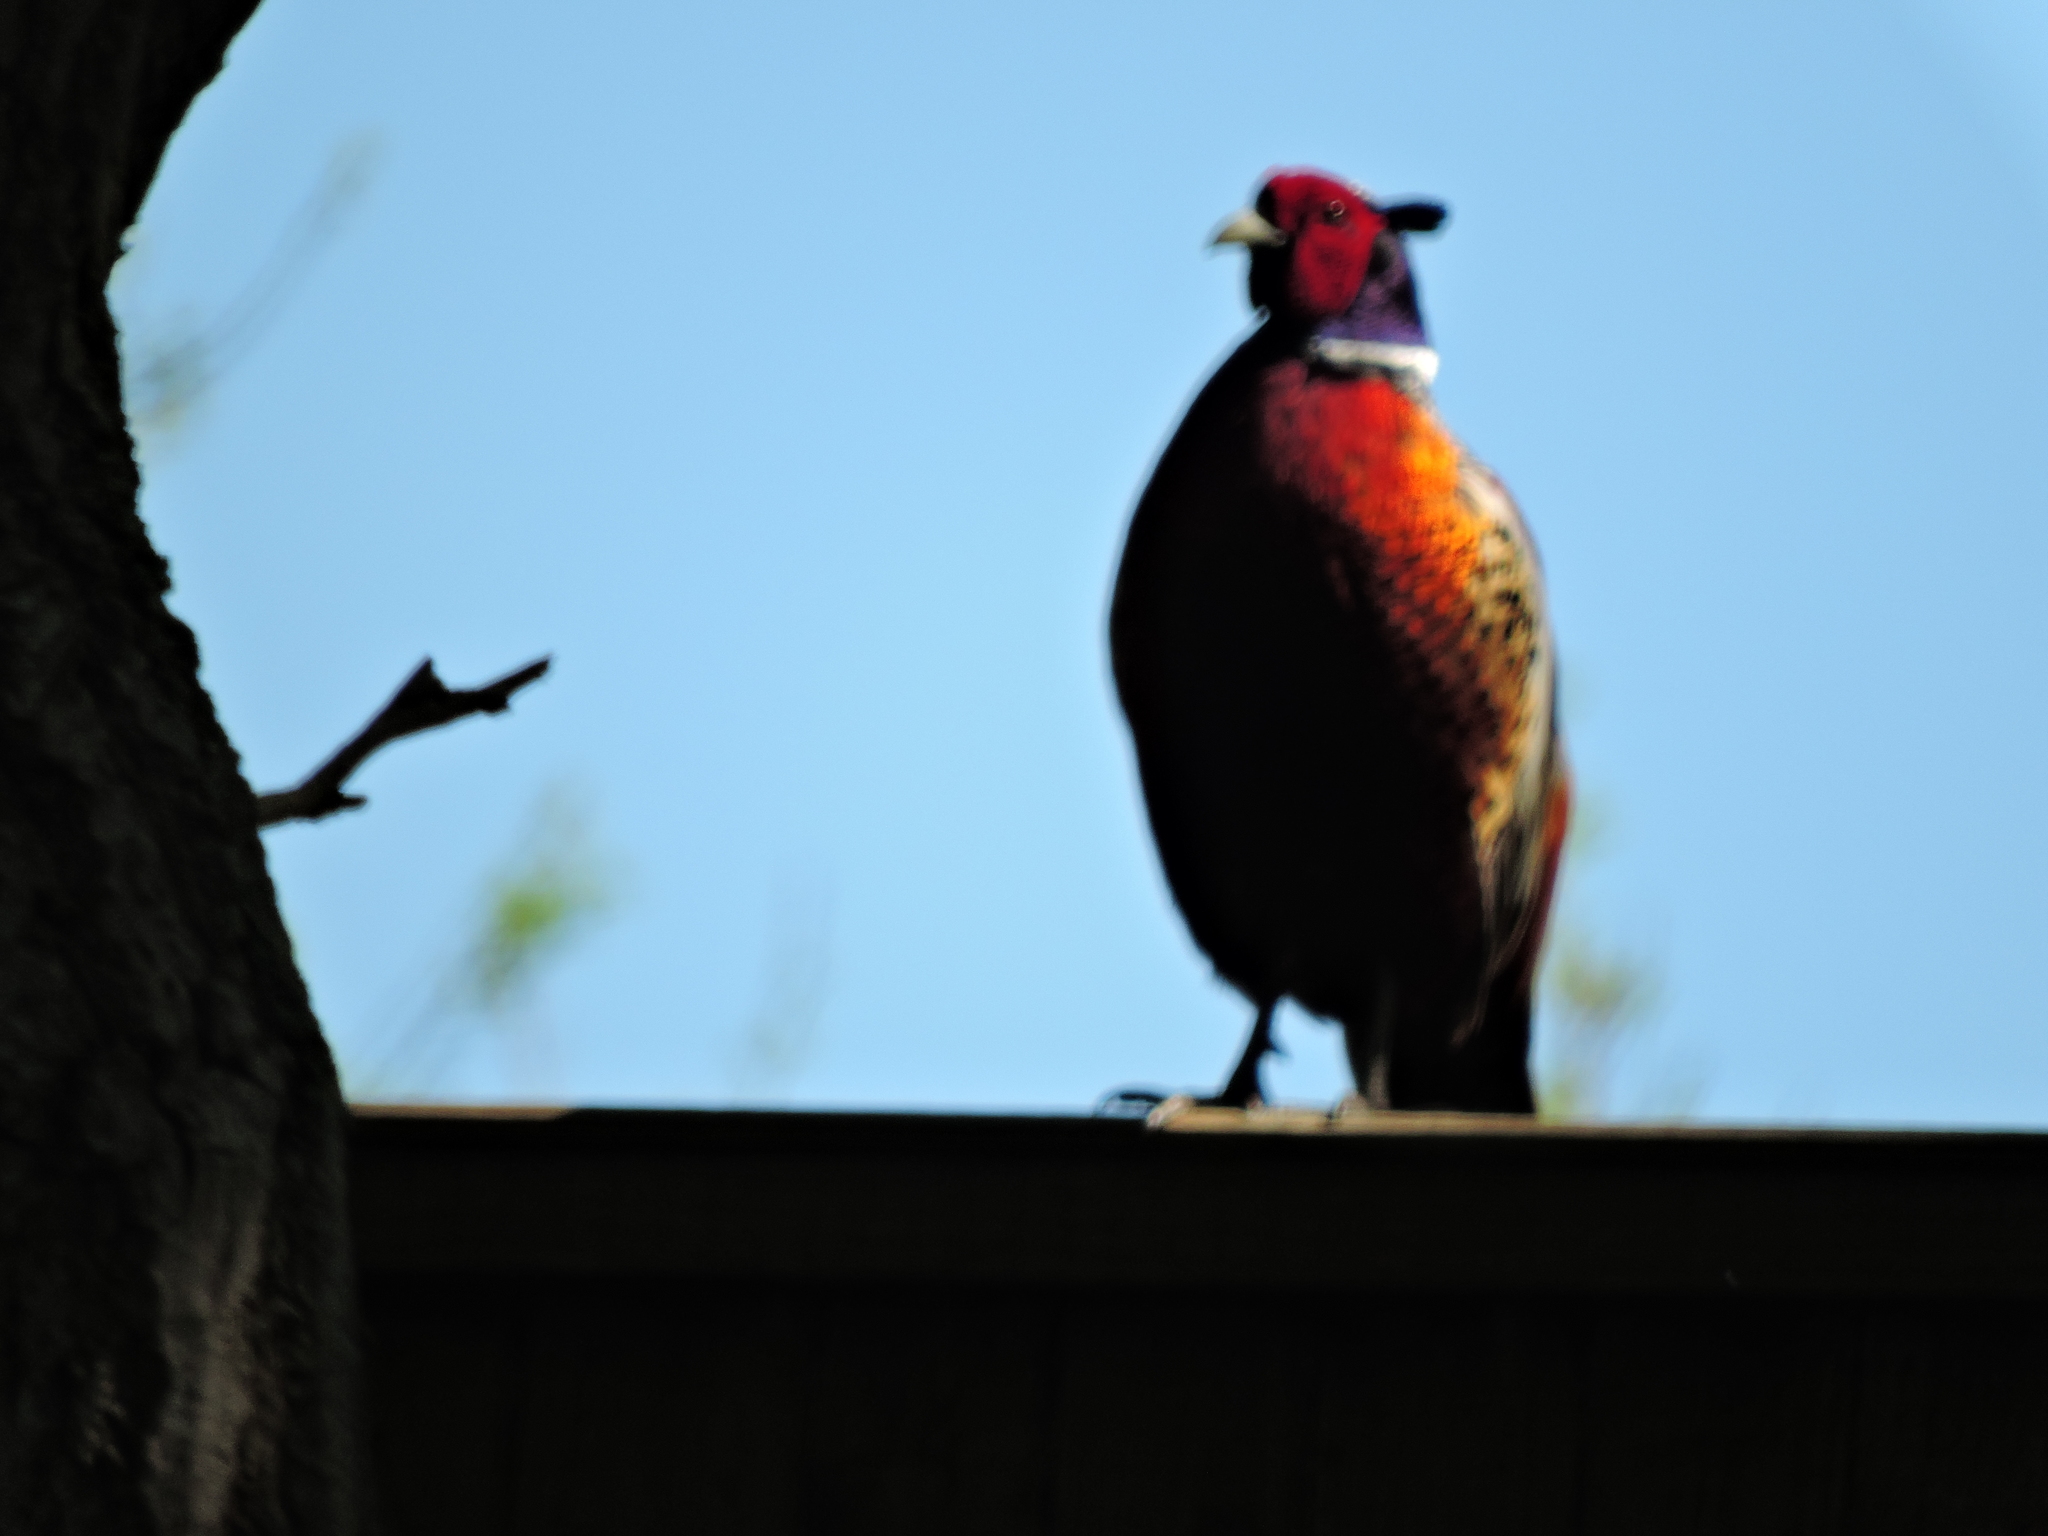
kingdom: Animalia
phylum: Chordata
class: Aves
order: Galliformes
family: Phasianidae
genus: Phasianus
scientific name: Phasianus colchicus
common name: Common pheasant
